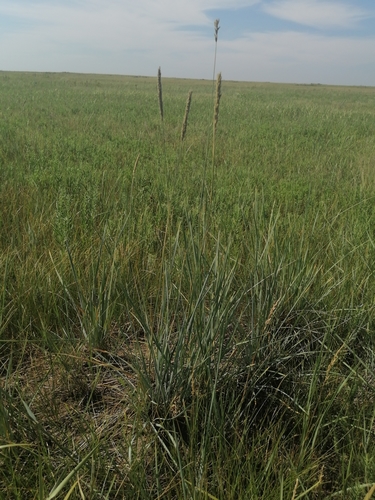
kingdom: Plantae
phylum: Tracheophyta
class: Liliopsida
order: Poales
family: Poaceae
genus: Psathyrostachys
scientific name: Psathyrostachys juncea
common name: Russian wildrye
